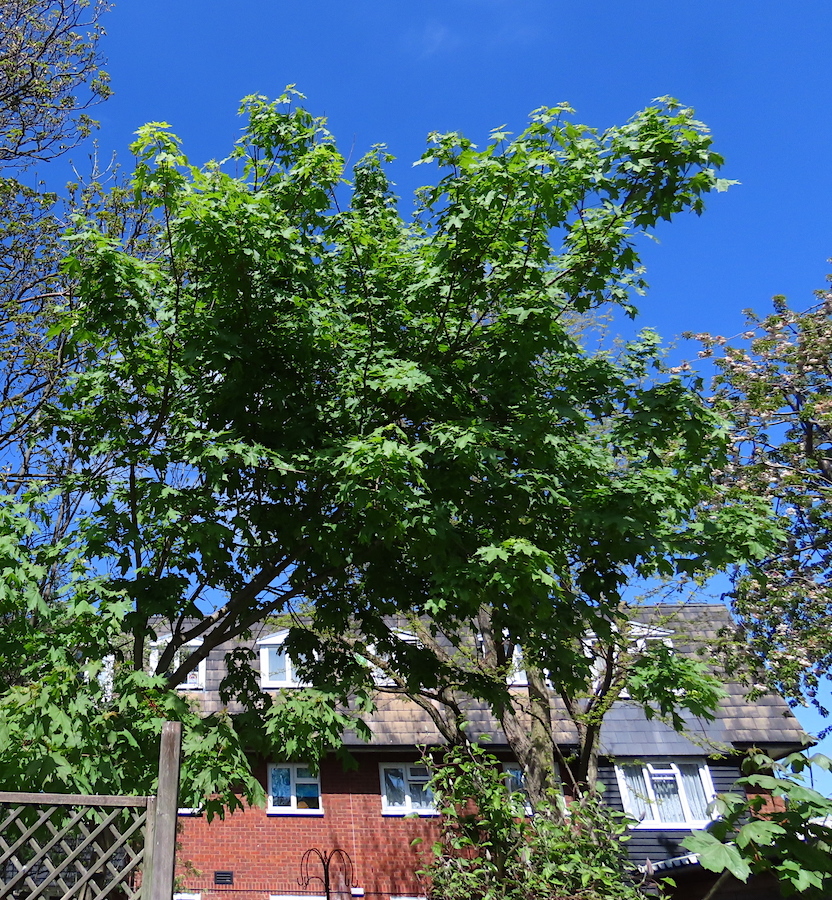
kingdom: Plantae
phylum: Tracheophyta
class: Magnoliopsida
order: Sapindales
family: Sapindaceae
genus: Acer
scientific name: Acer platanoides
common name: Norway maple
